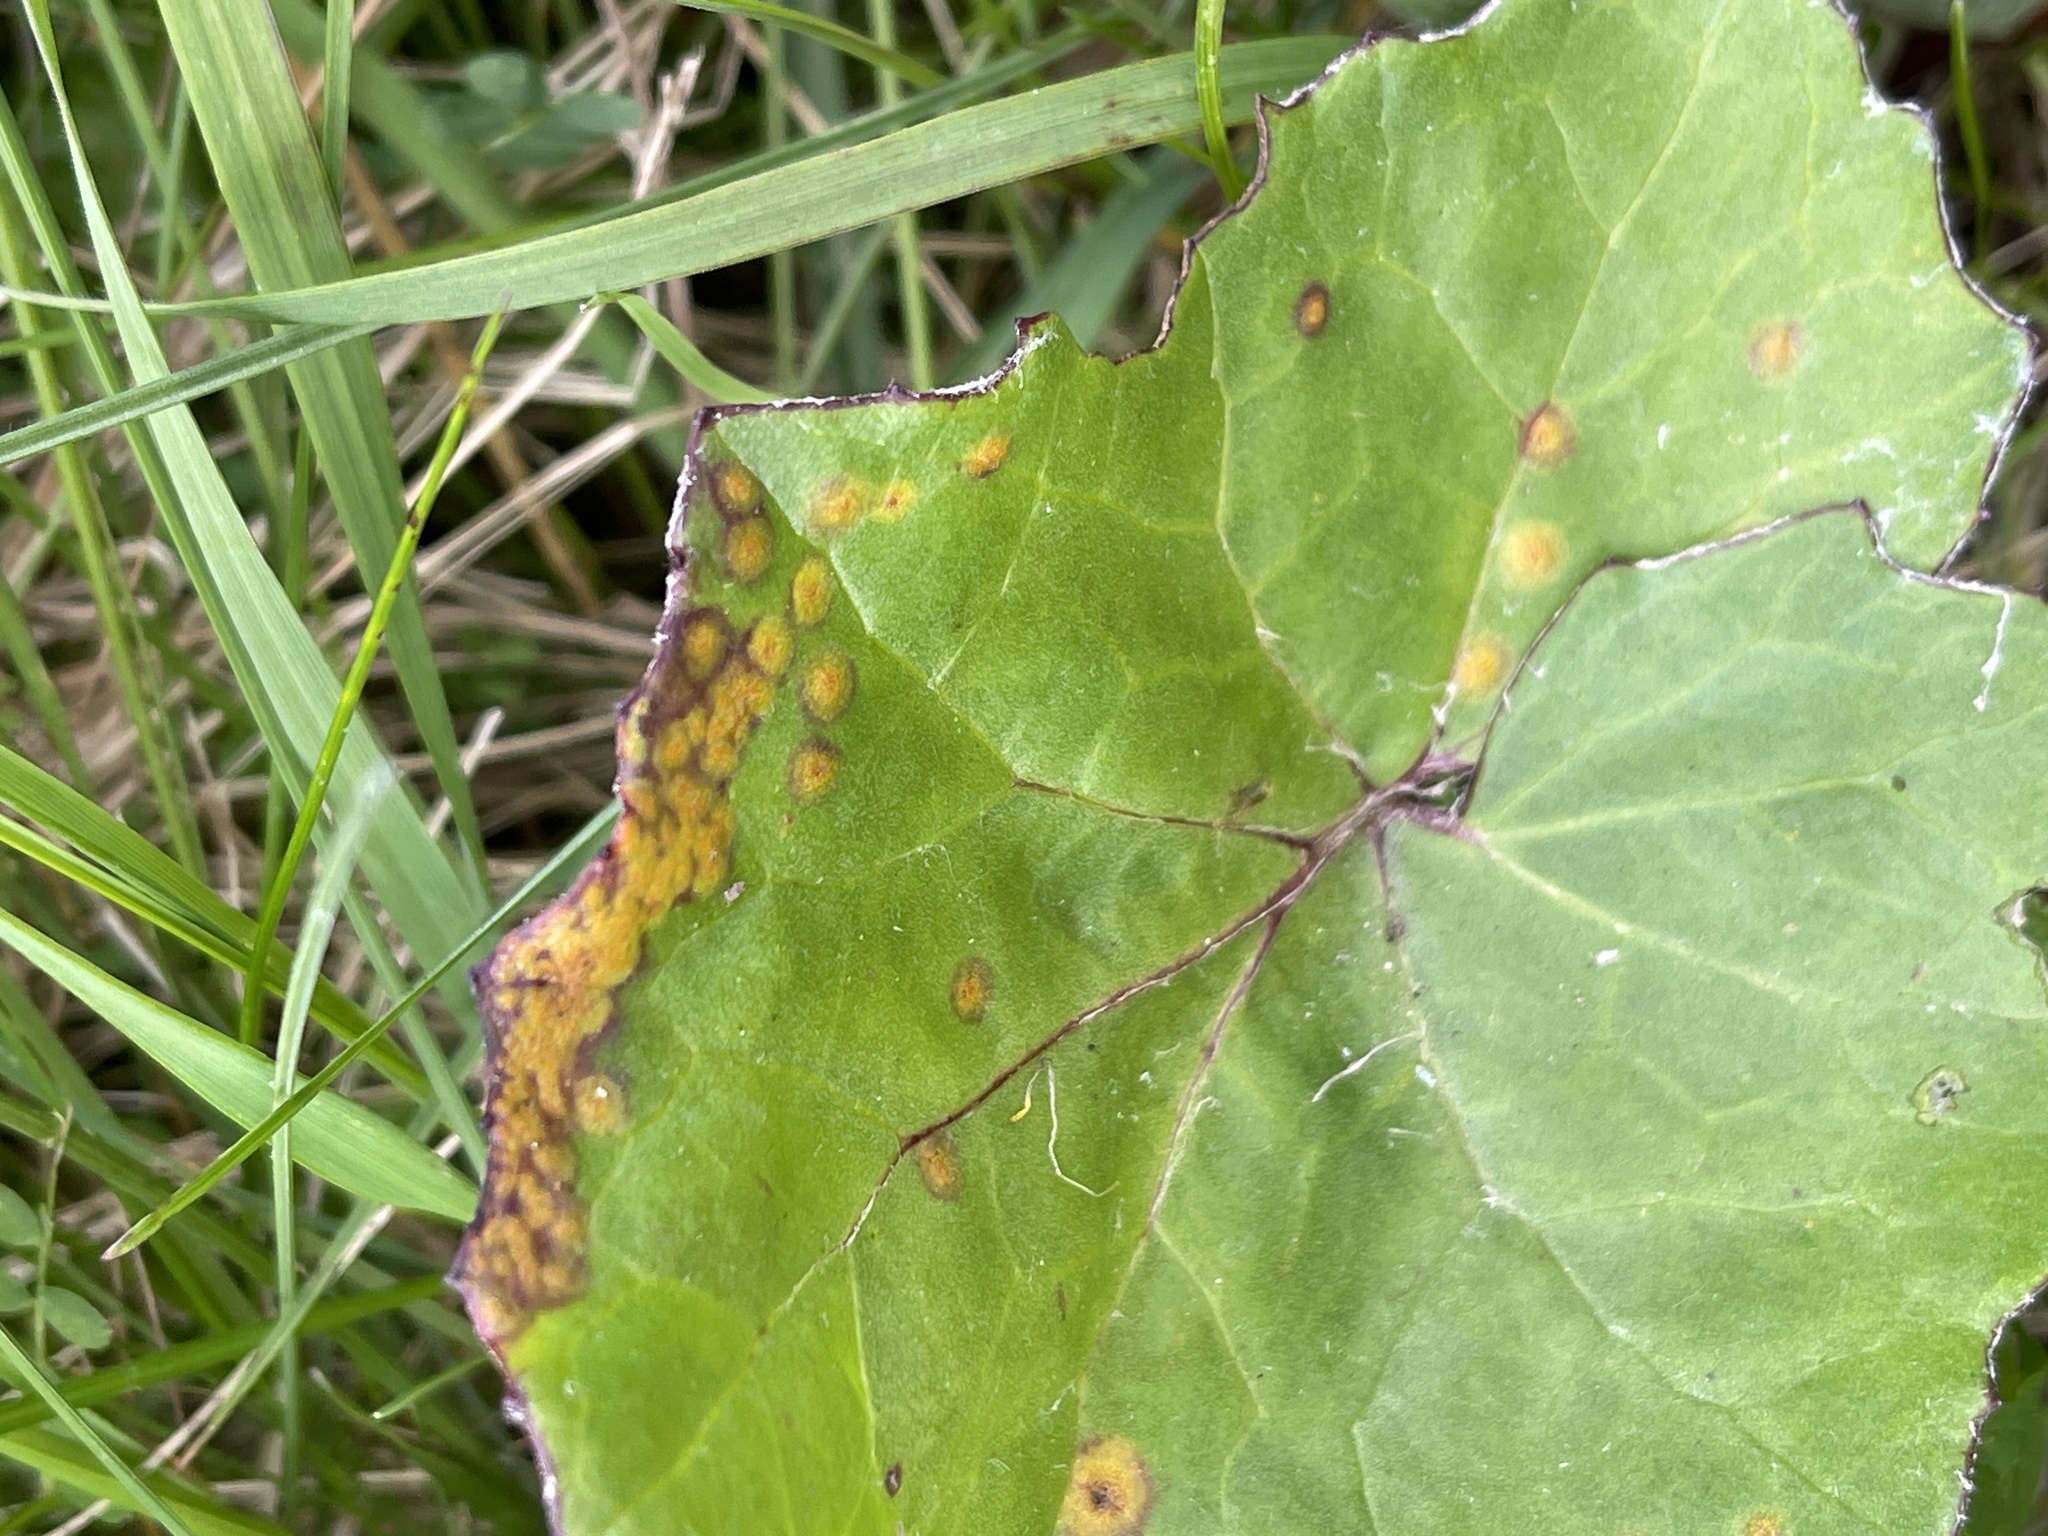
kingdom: Fungi
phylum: Basidiomycota
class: Pucciniomycetes
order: Pucciniales
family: Pucciniaceae
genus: Puccinia
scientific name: Puccinia
